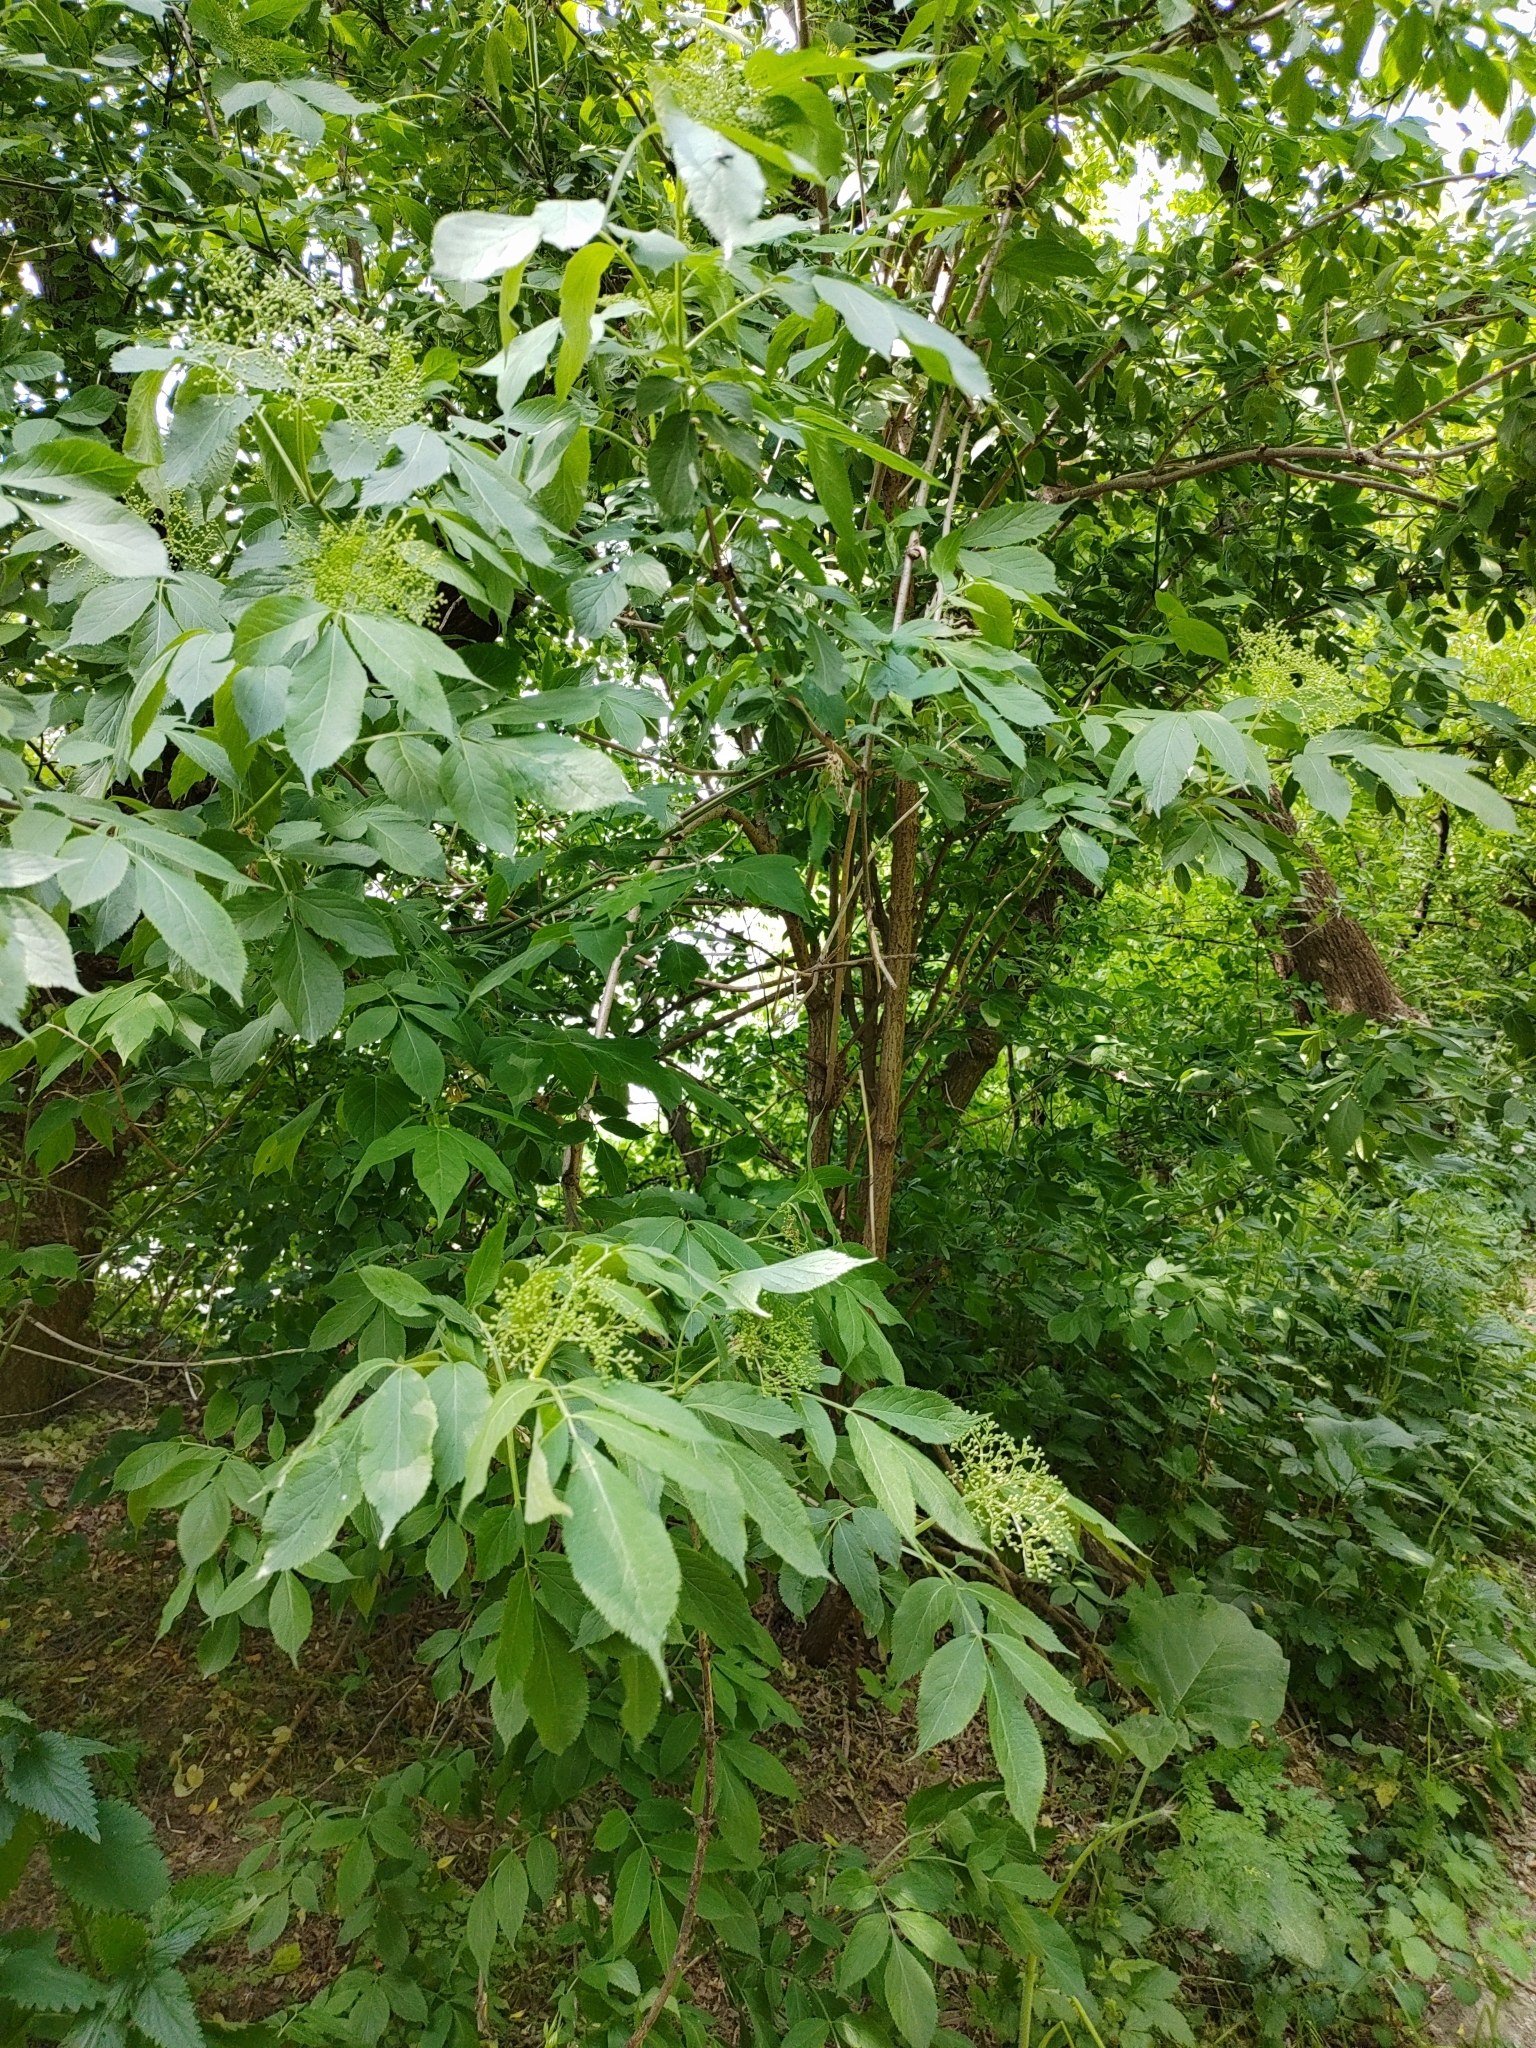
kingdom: Plantae
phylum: Tracheophyta
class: Magnoliopsida
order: Dipsacales
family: Viburnaceae
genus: Sambucus
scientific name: Sambucus nigra
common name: Elder
